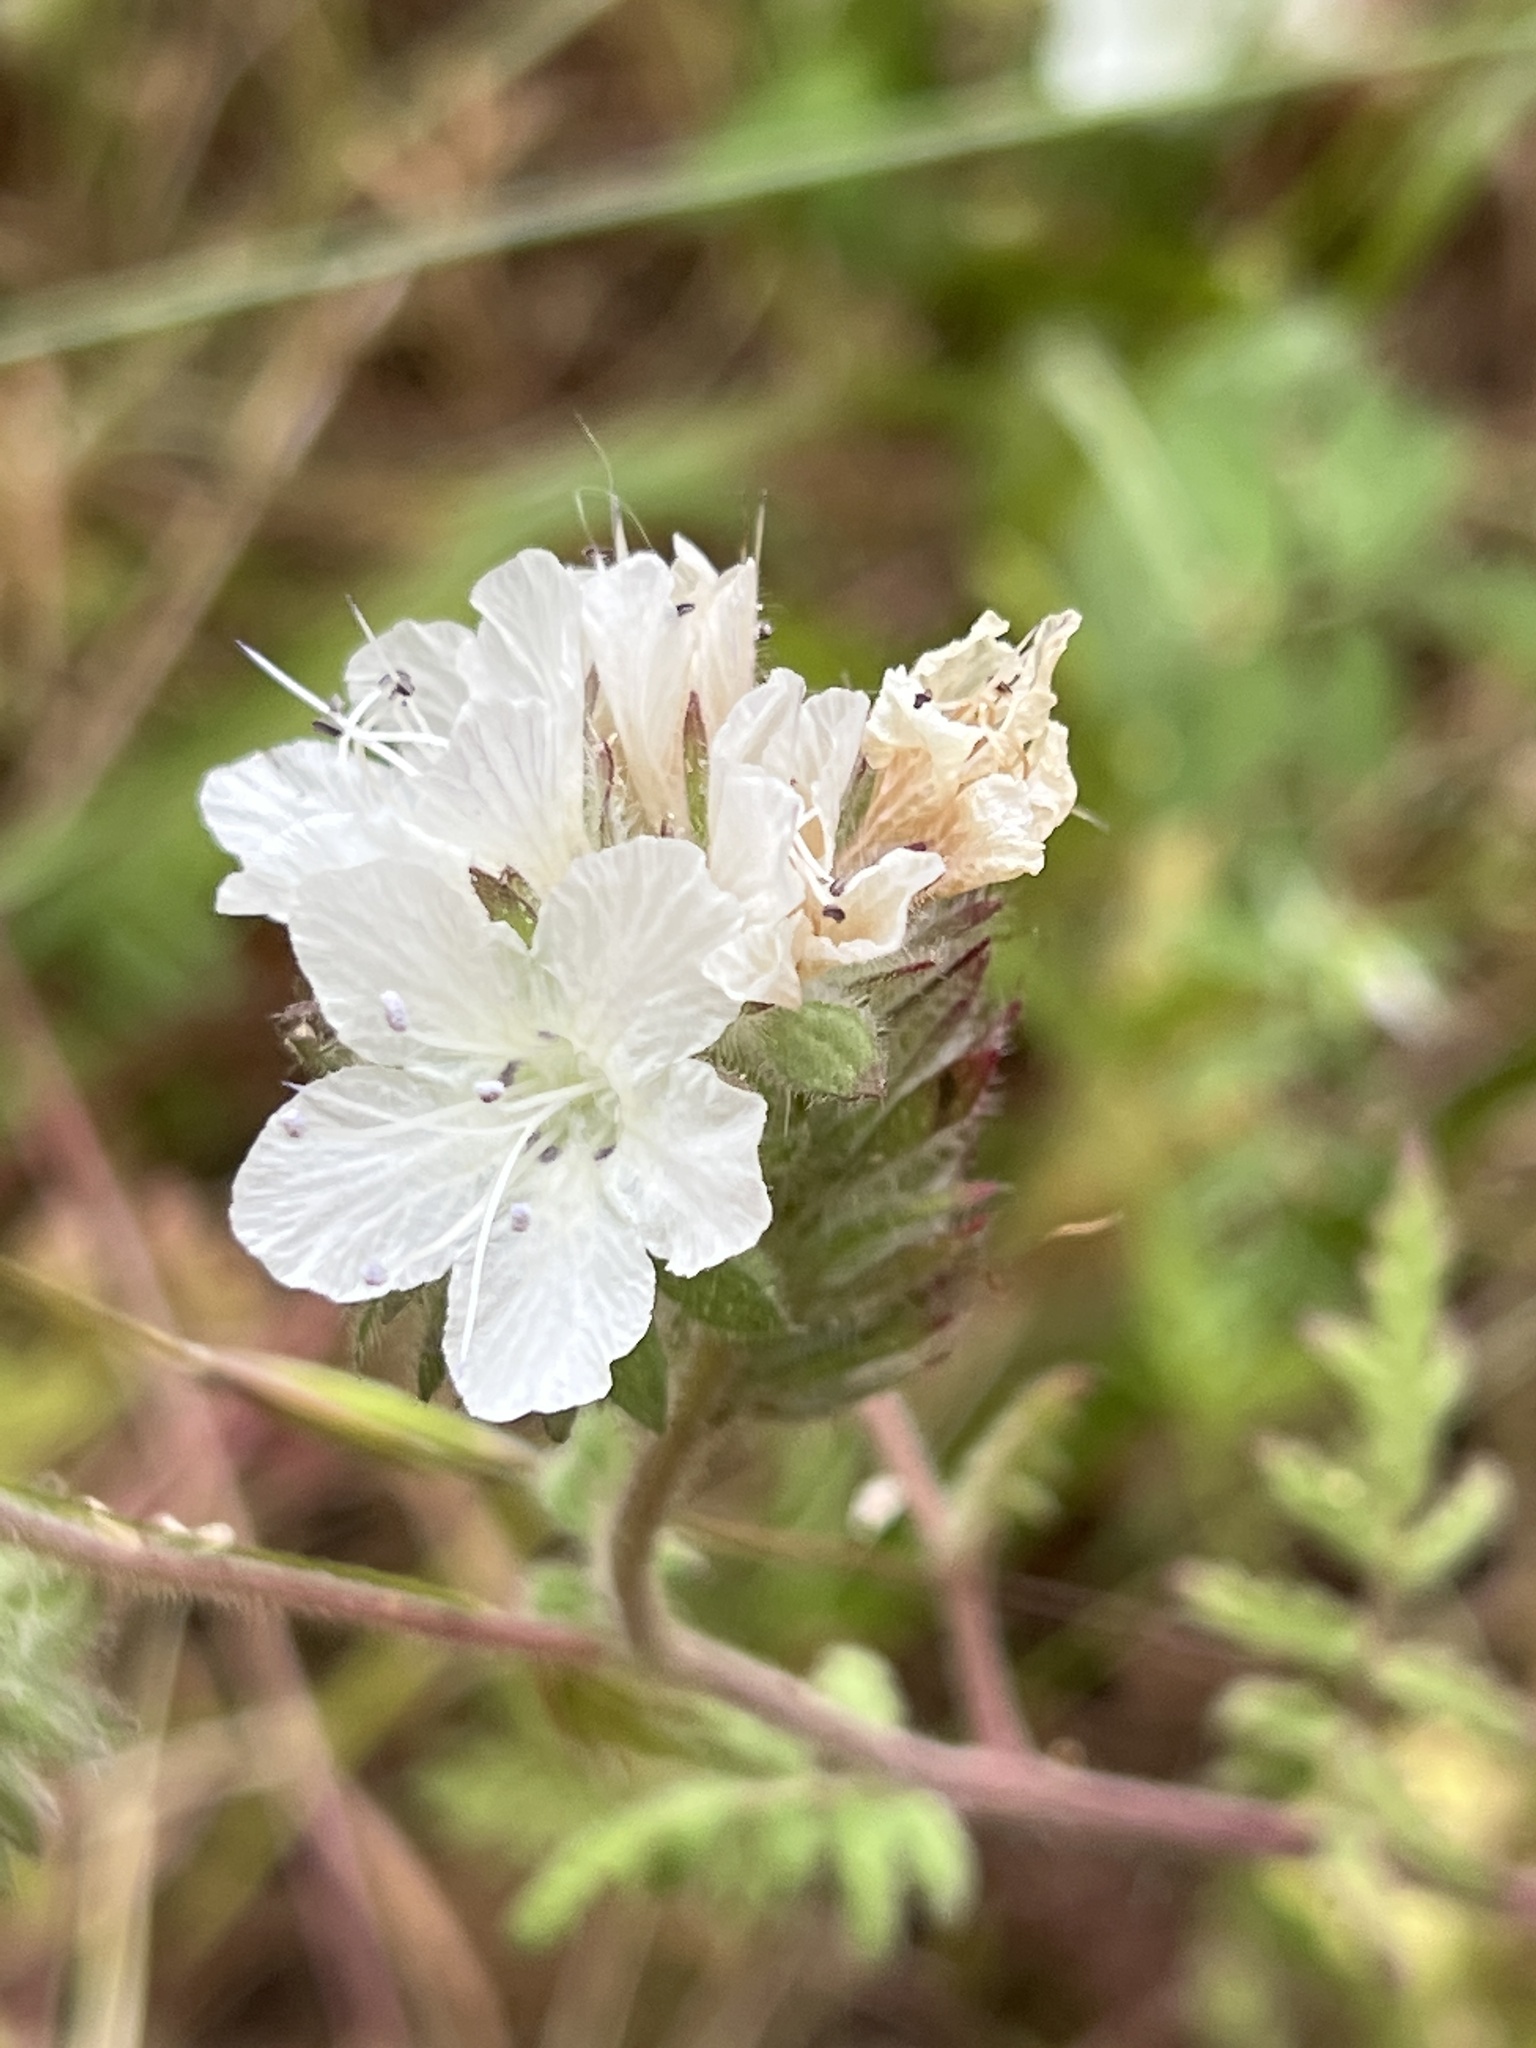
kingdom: Plantae
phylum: Tracheophyta
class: Magnoliopsida
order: Boraginales
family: Hydrophyllaceae
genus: Phacelia
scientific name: Phacelia distans
